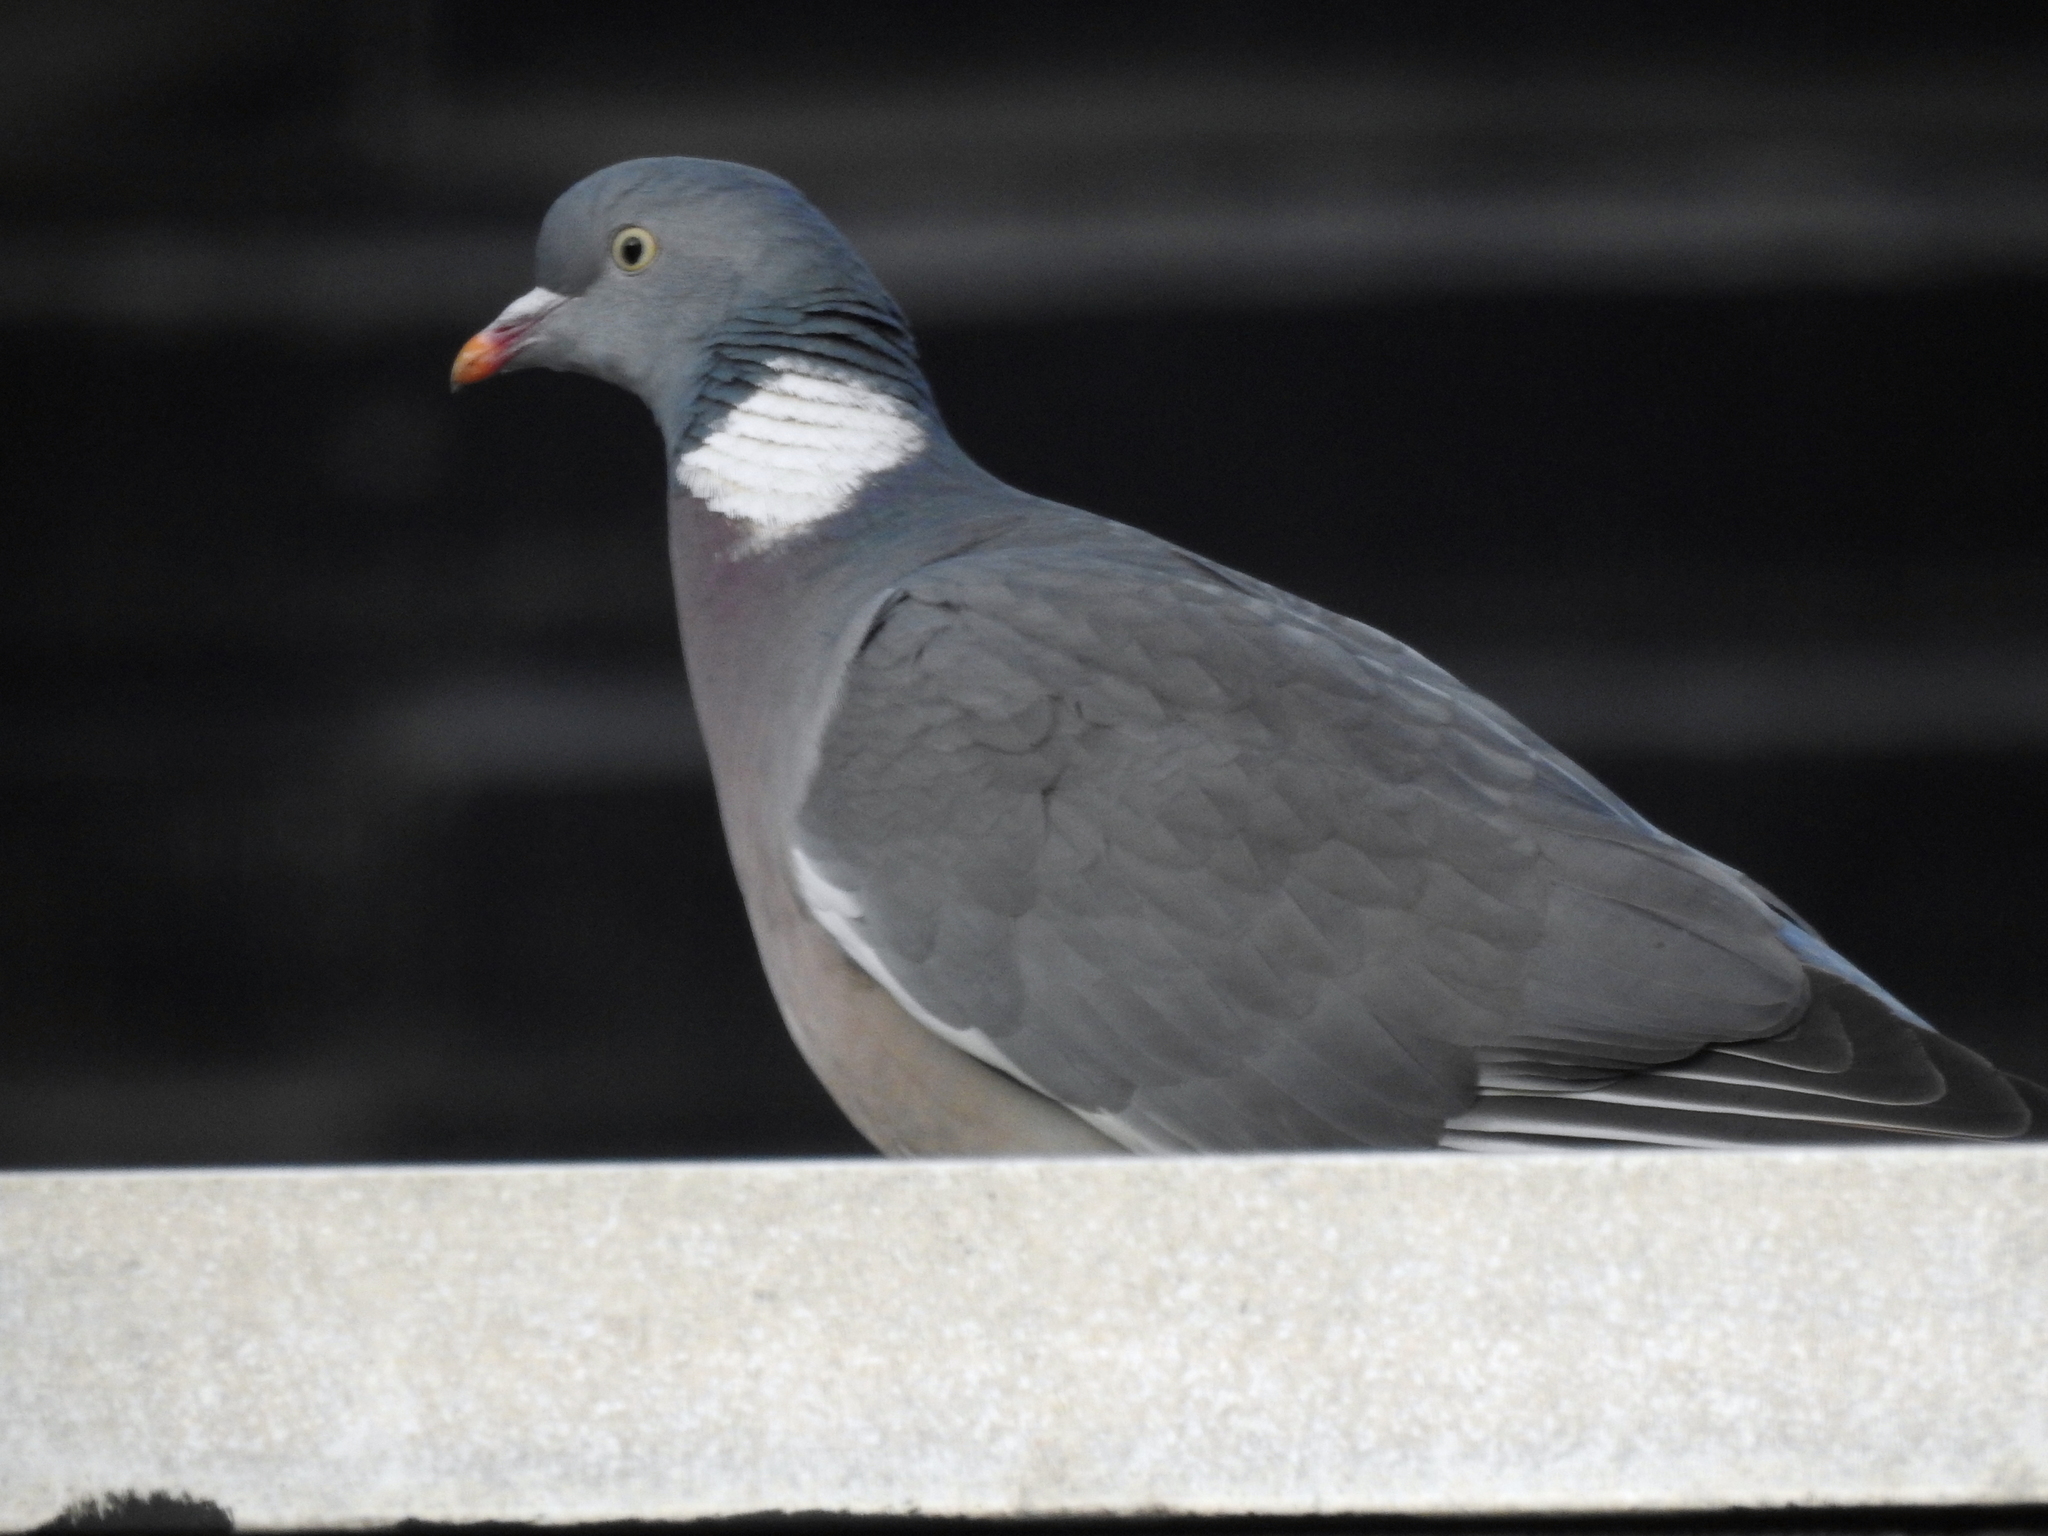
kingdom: Animalia
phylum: Chordata
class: Aves
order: Columbiformes
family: Columbidae
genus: Columba
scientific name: Columba palumbus
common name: Common wood pigeon
